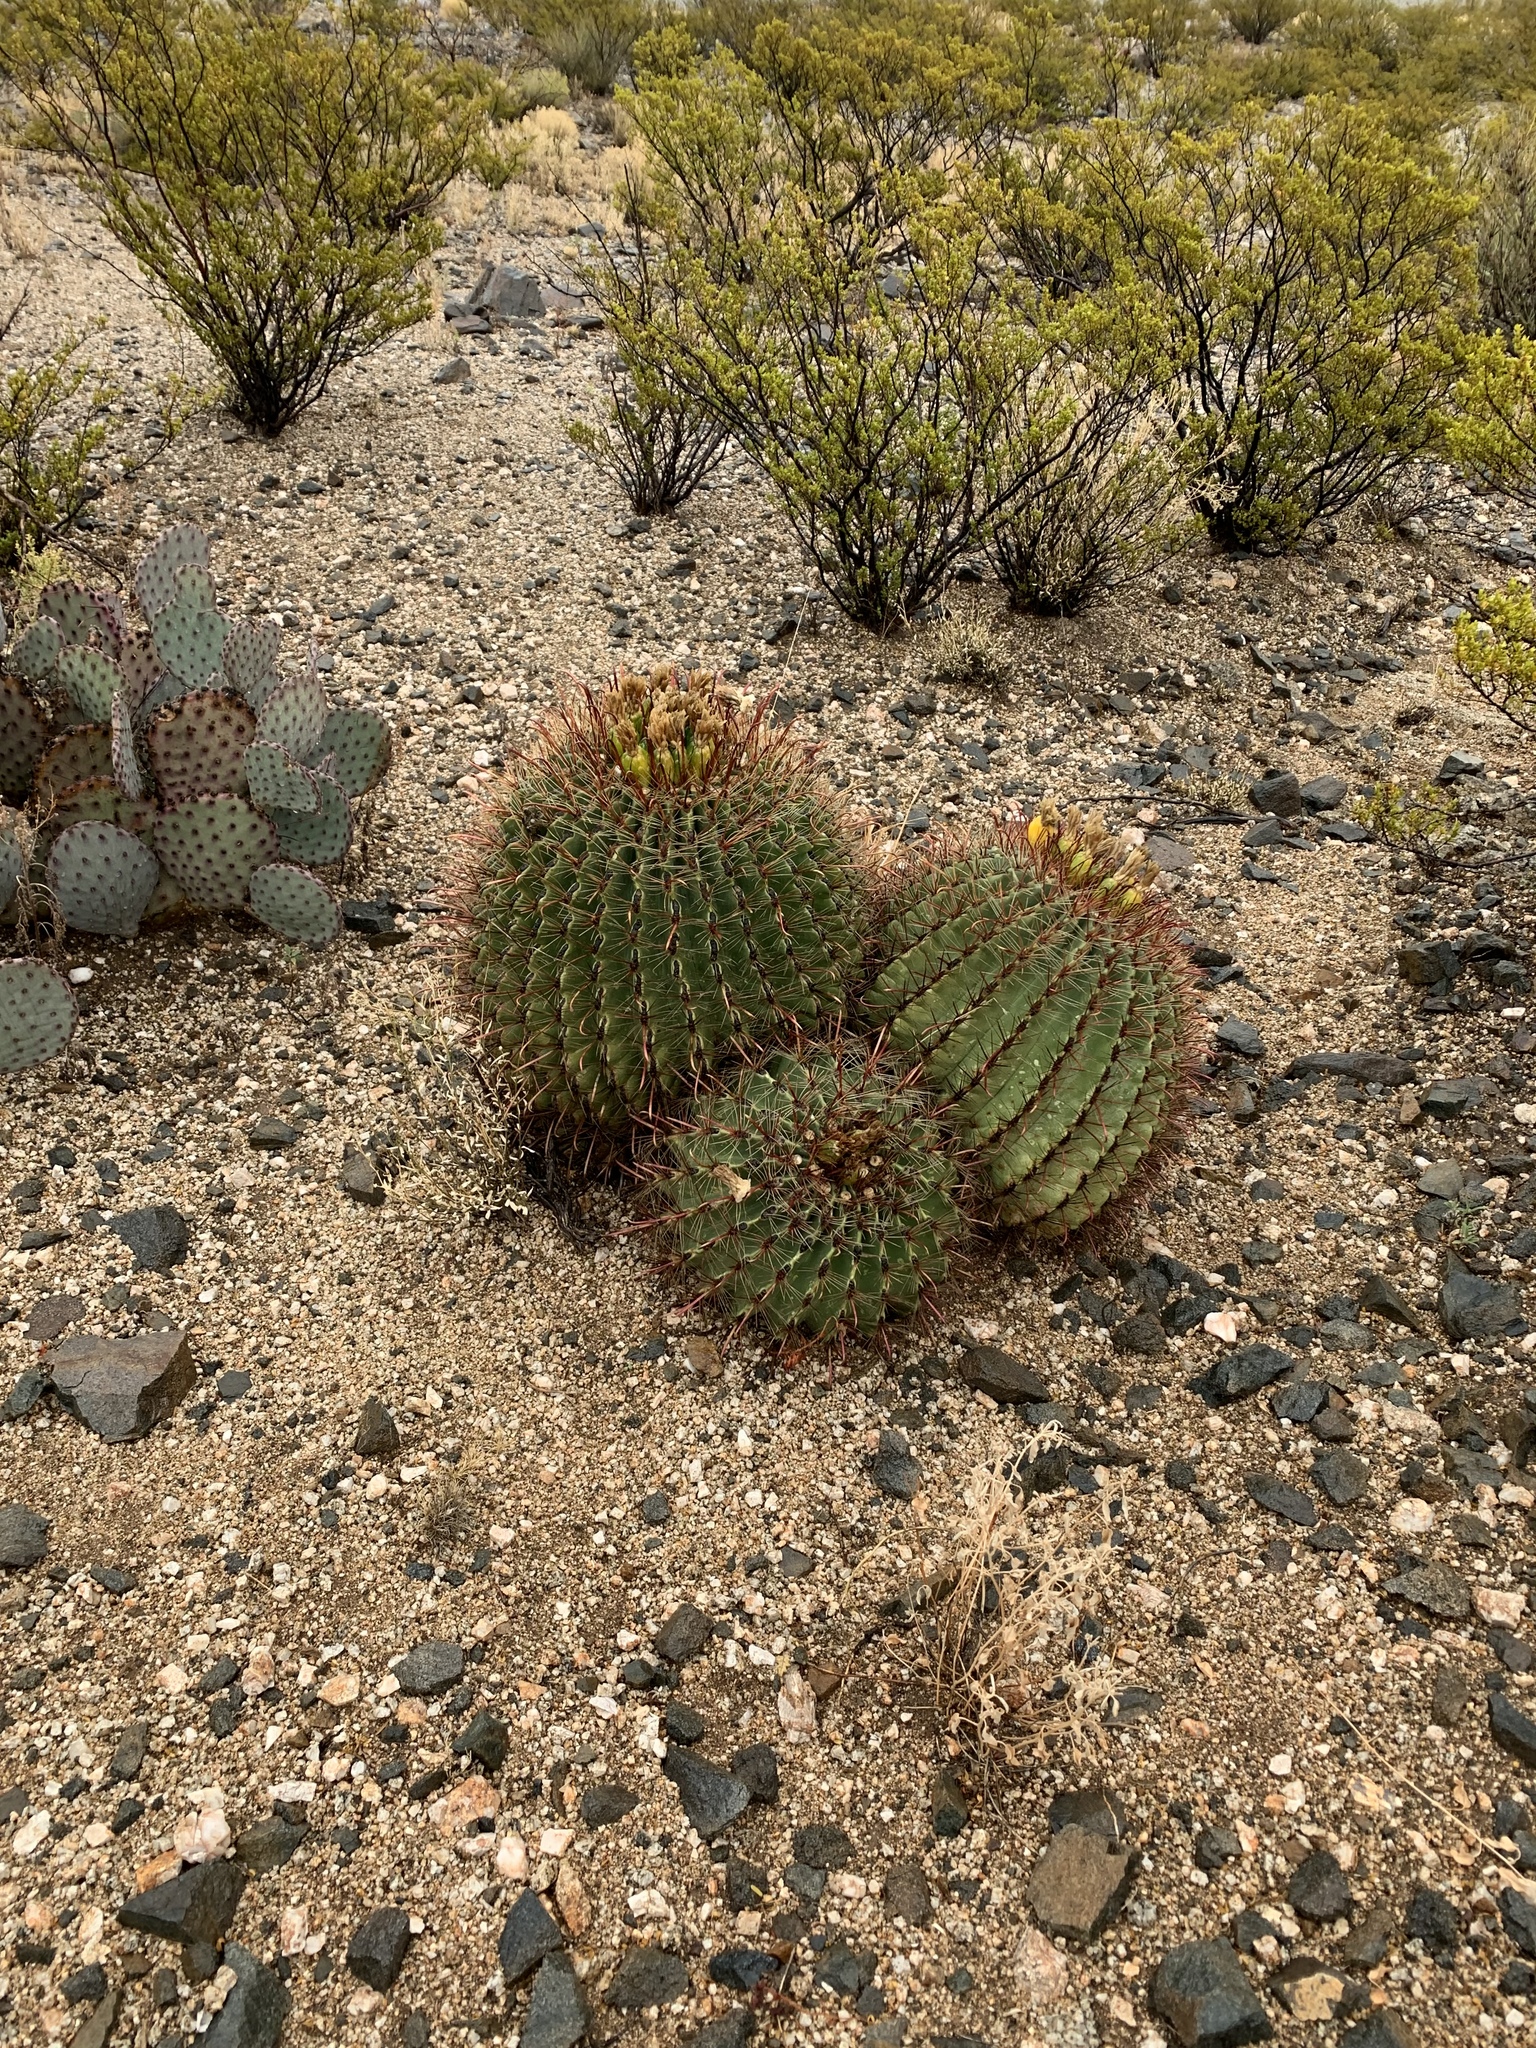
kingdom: Plantae
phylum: Tracheophyta
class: Magnoliopsida
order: Caryophyllales
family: Cactaceae
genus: Ferocactus
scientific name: Ferocactus wislizeni
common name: Candy barrel cactus
